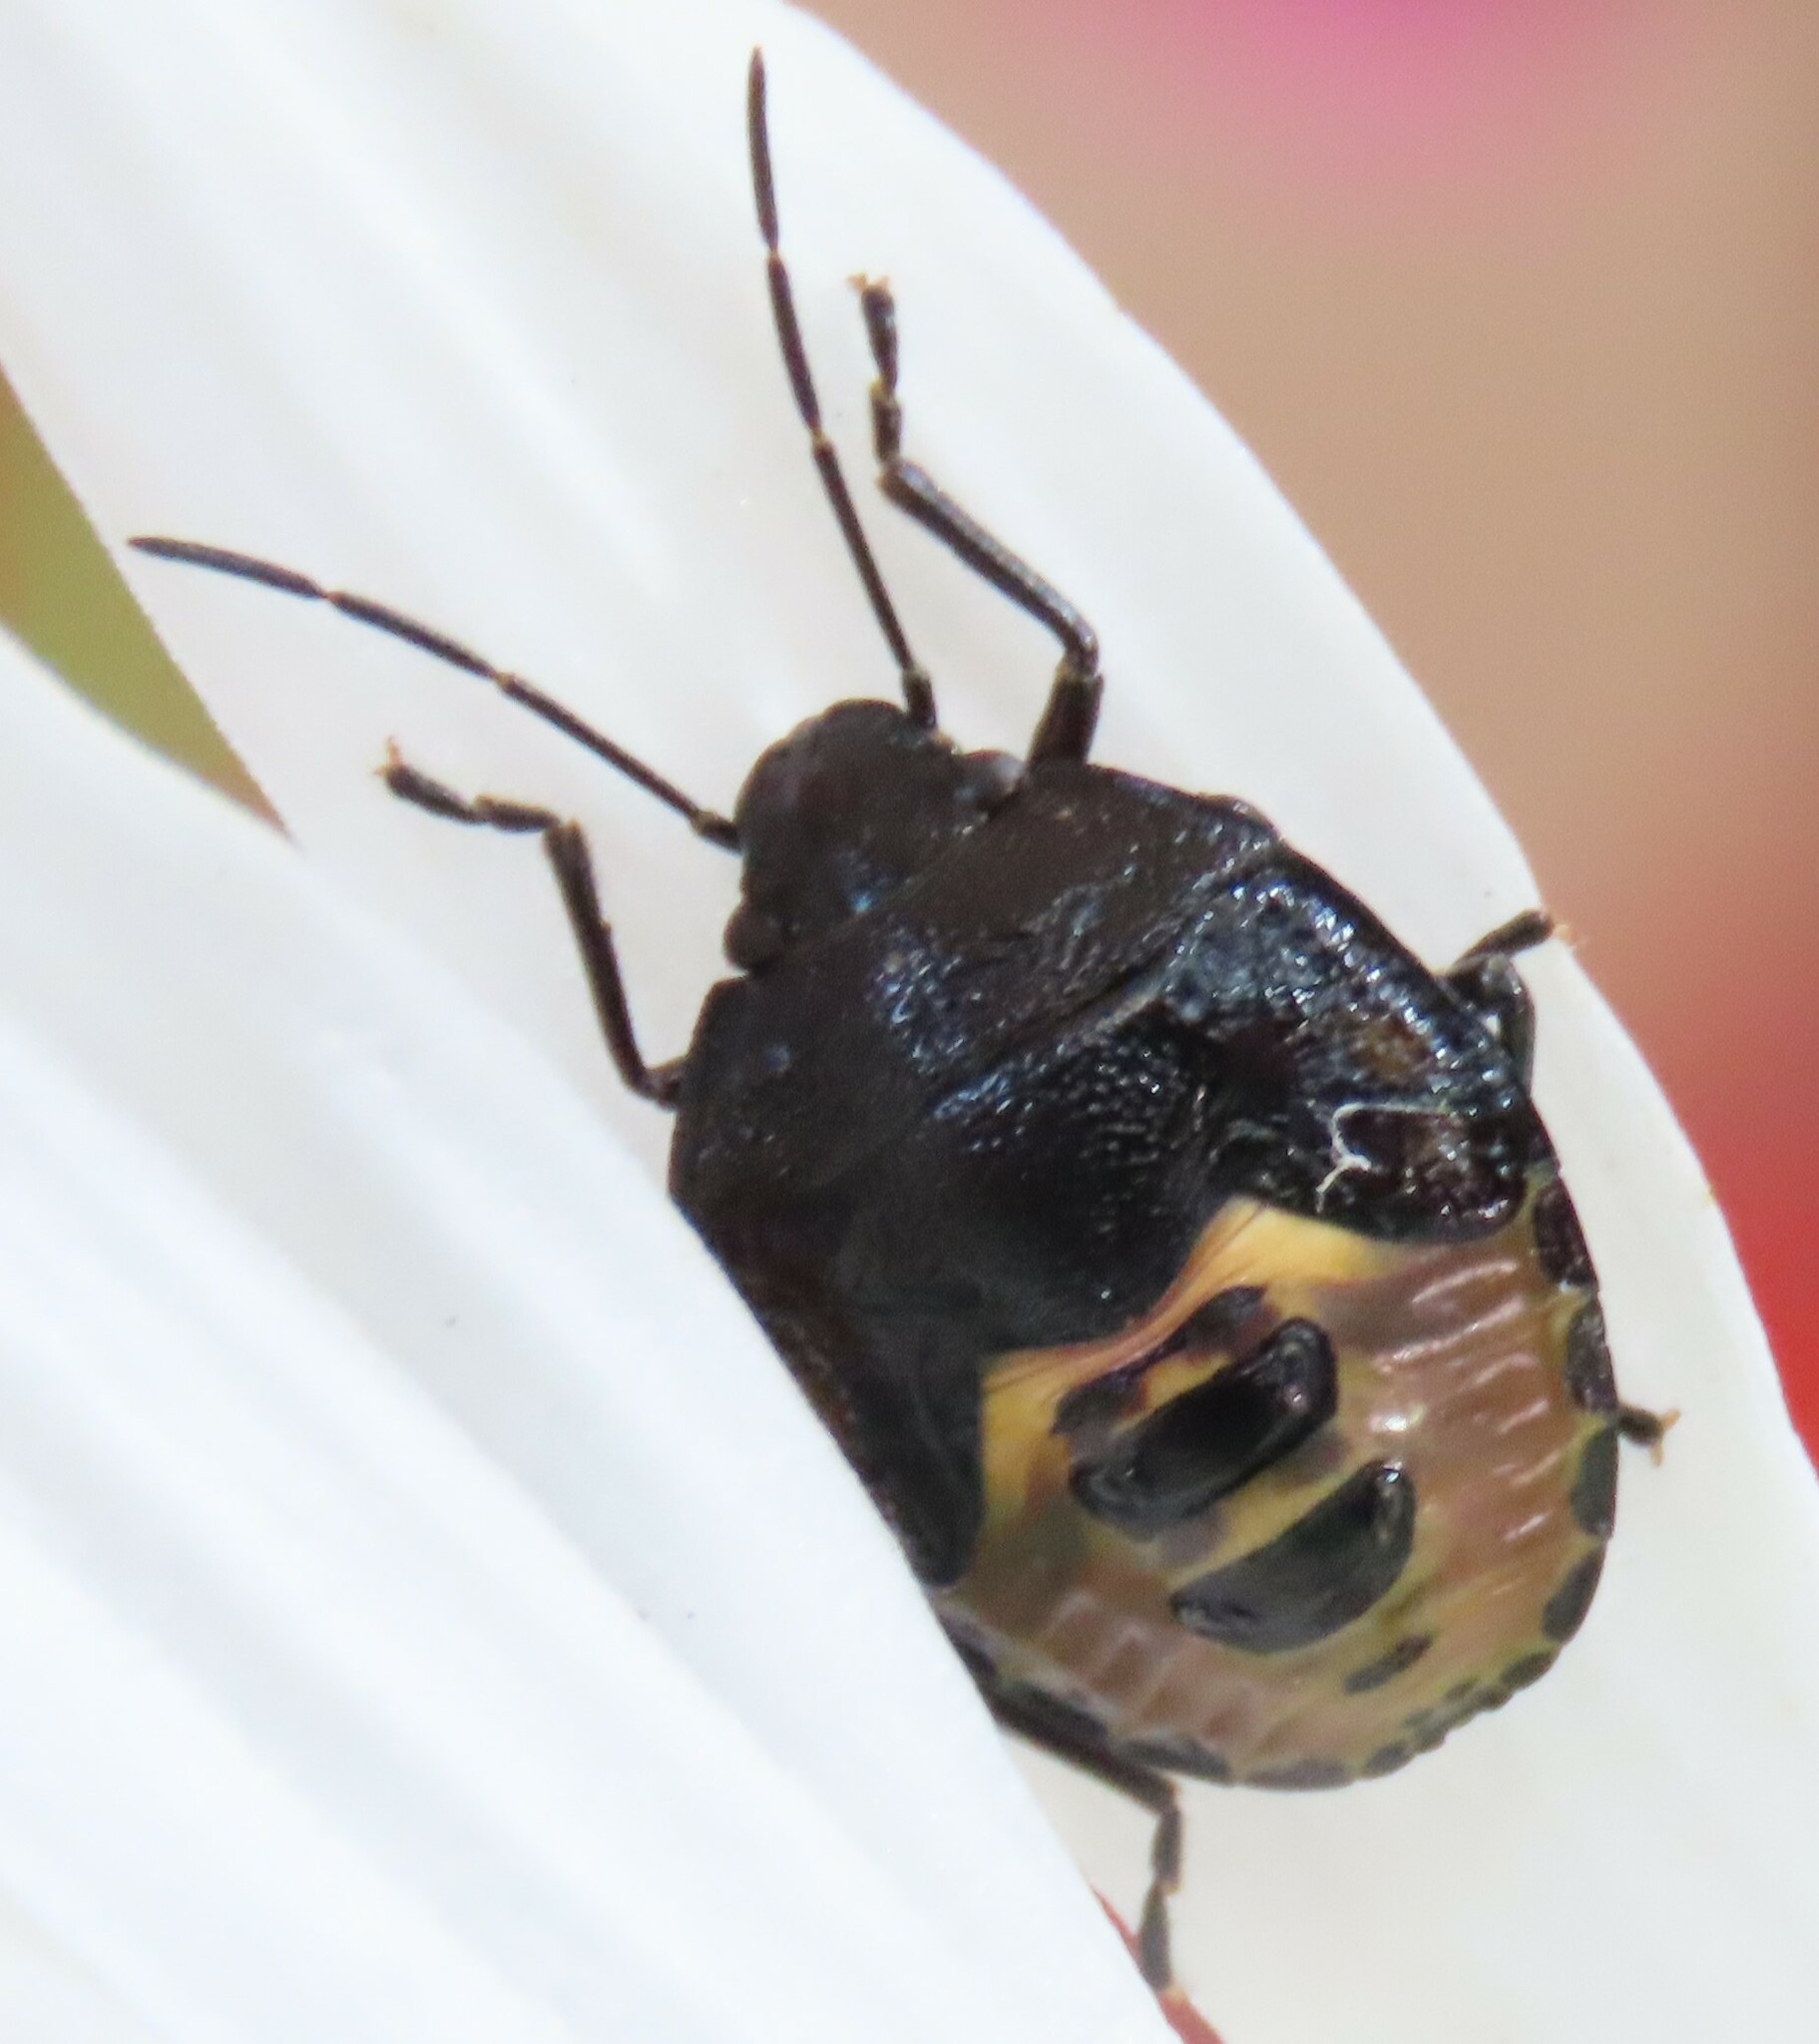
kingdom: Animalia
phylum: Arthropoda
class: Insecta
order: Hemiptera
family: Pentatomidae
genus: Glaucias
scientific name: Glaucias amyota
